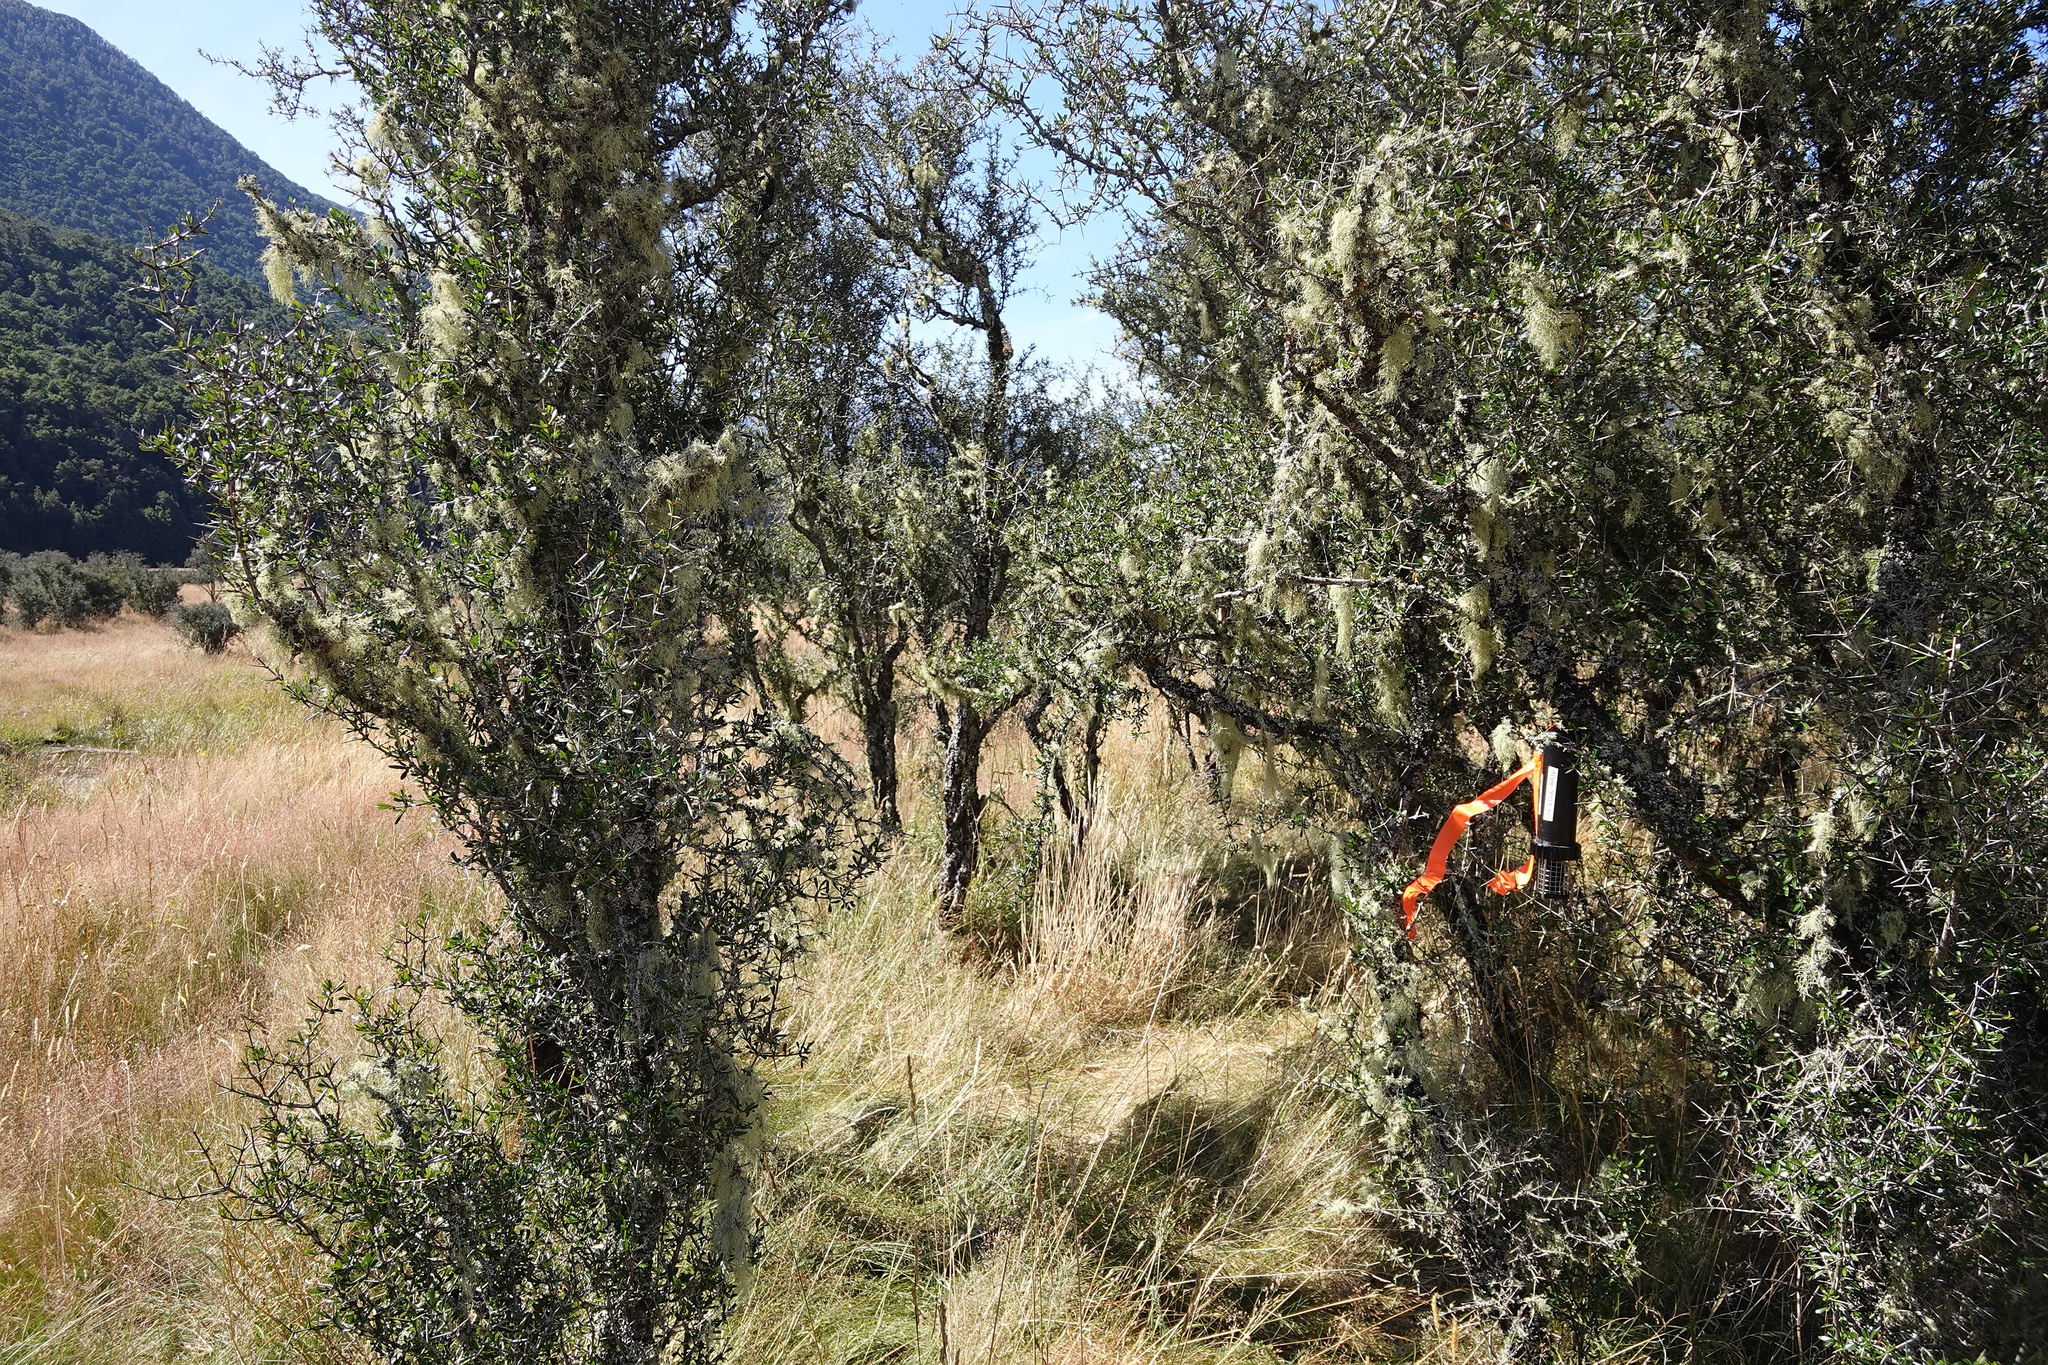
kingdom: Plantae
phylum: Tracheophyta
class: Magnoliopsida
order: Rosales
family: Rhamnaceae
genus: Discaria
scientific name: Discaria toumatou
